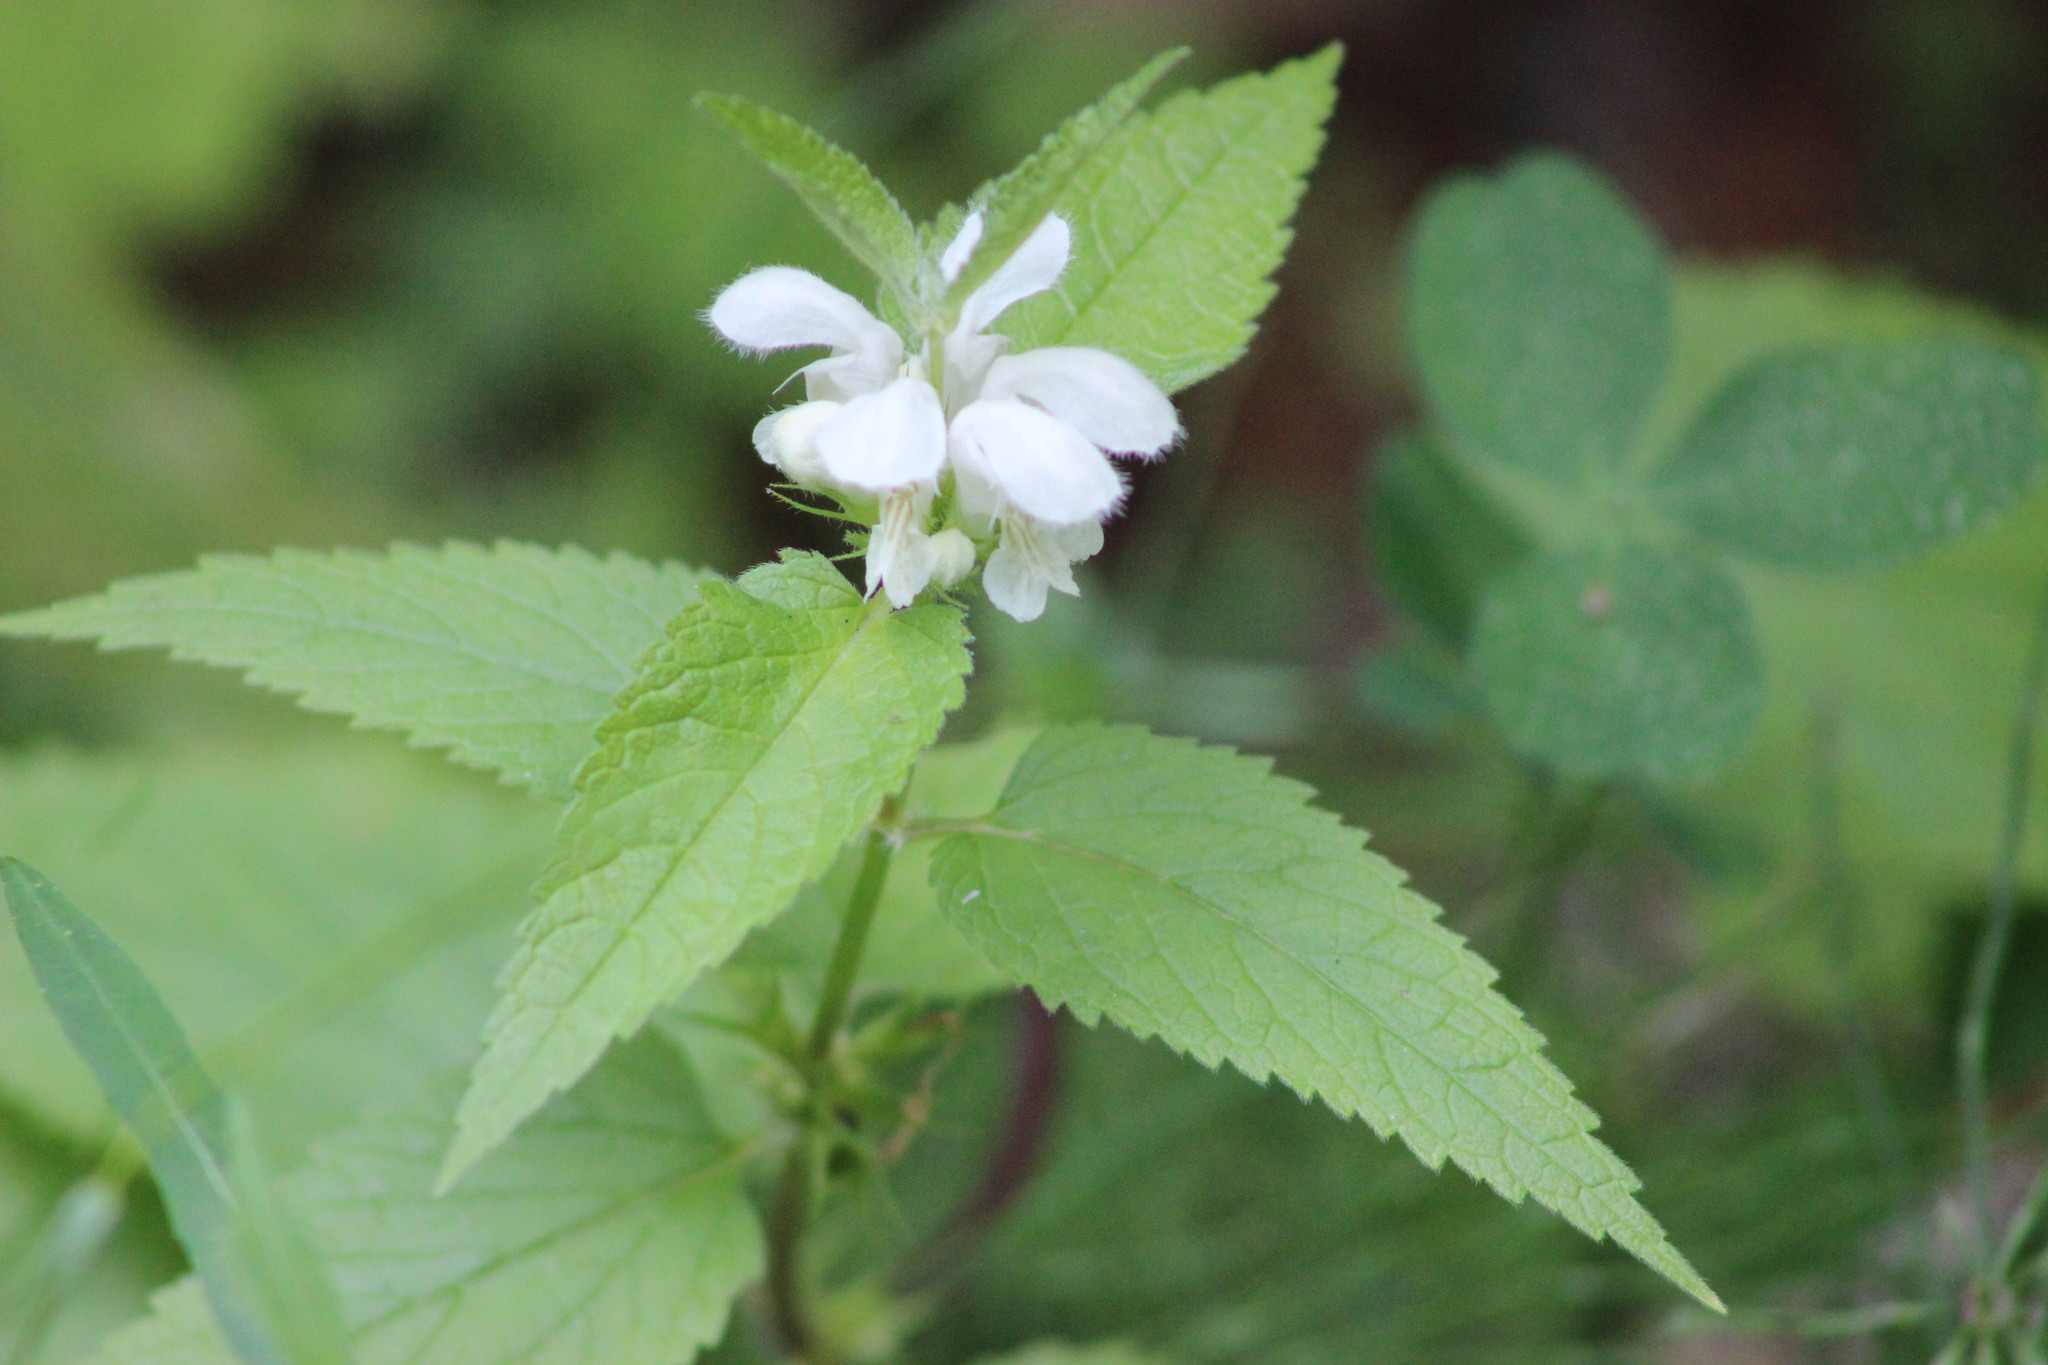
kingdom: Plantae
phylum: Tracheophyta
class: Magnoliopsida
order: Lamiales
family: Lamiaceae
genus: Lamium
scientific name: Lamium album
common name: White dead-nettle
